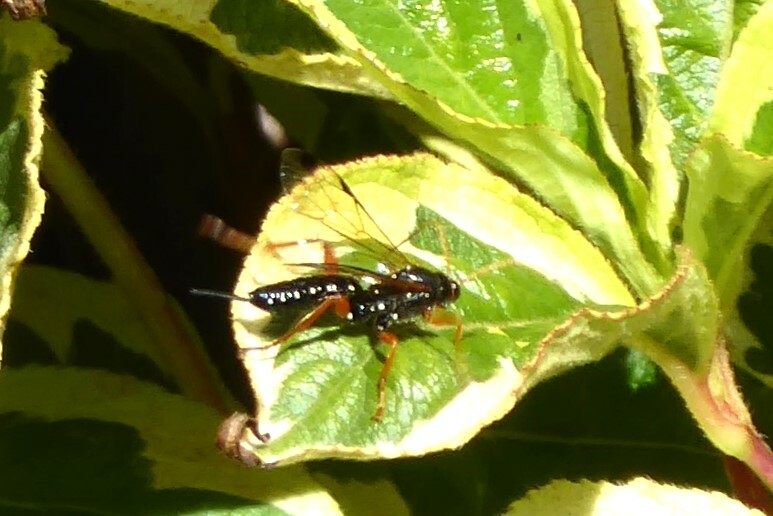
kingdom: Animalia
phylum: Arthropoda
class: Insecta
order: Hymenoptera
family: Ichneumonidae
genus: Echthromorpha
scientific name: Echthromorpha intricatoria
